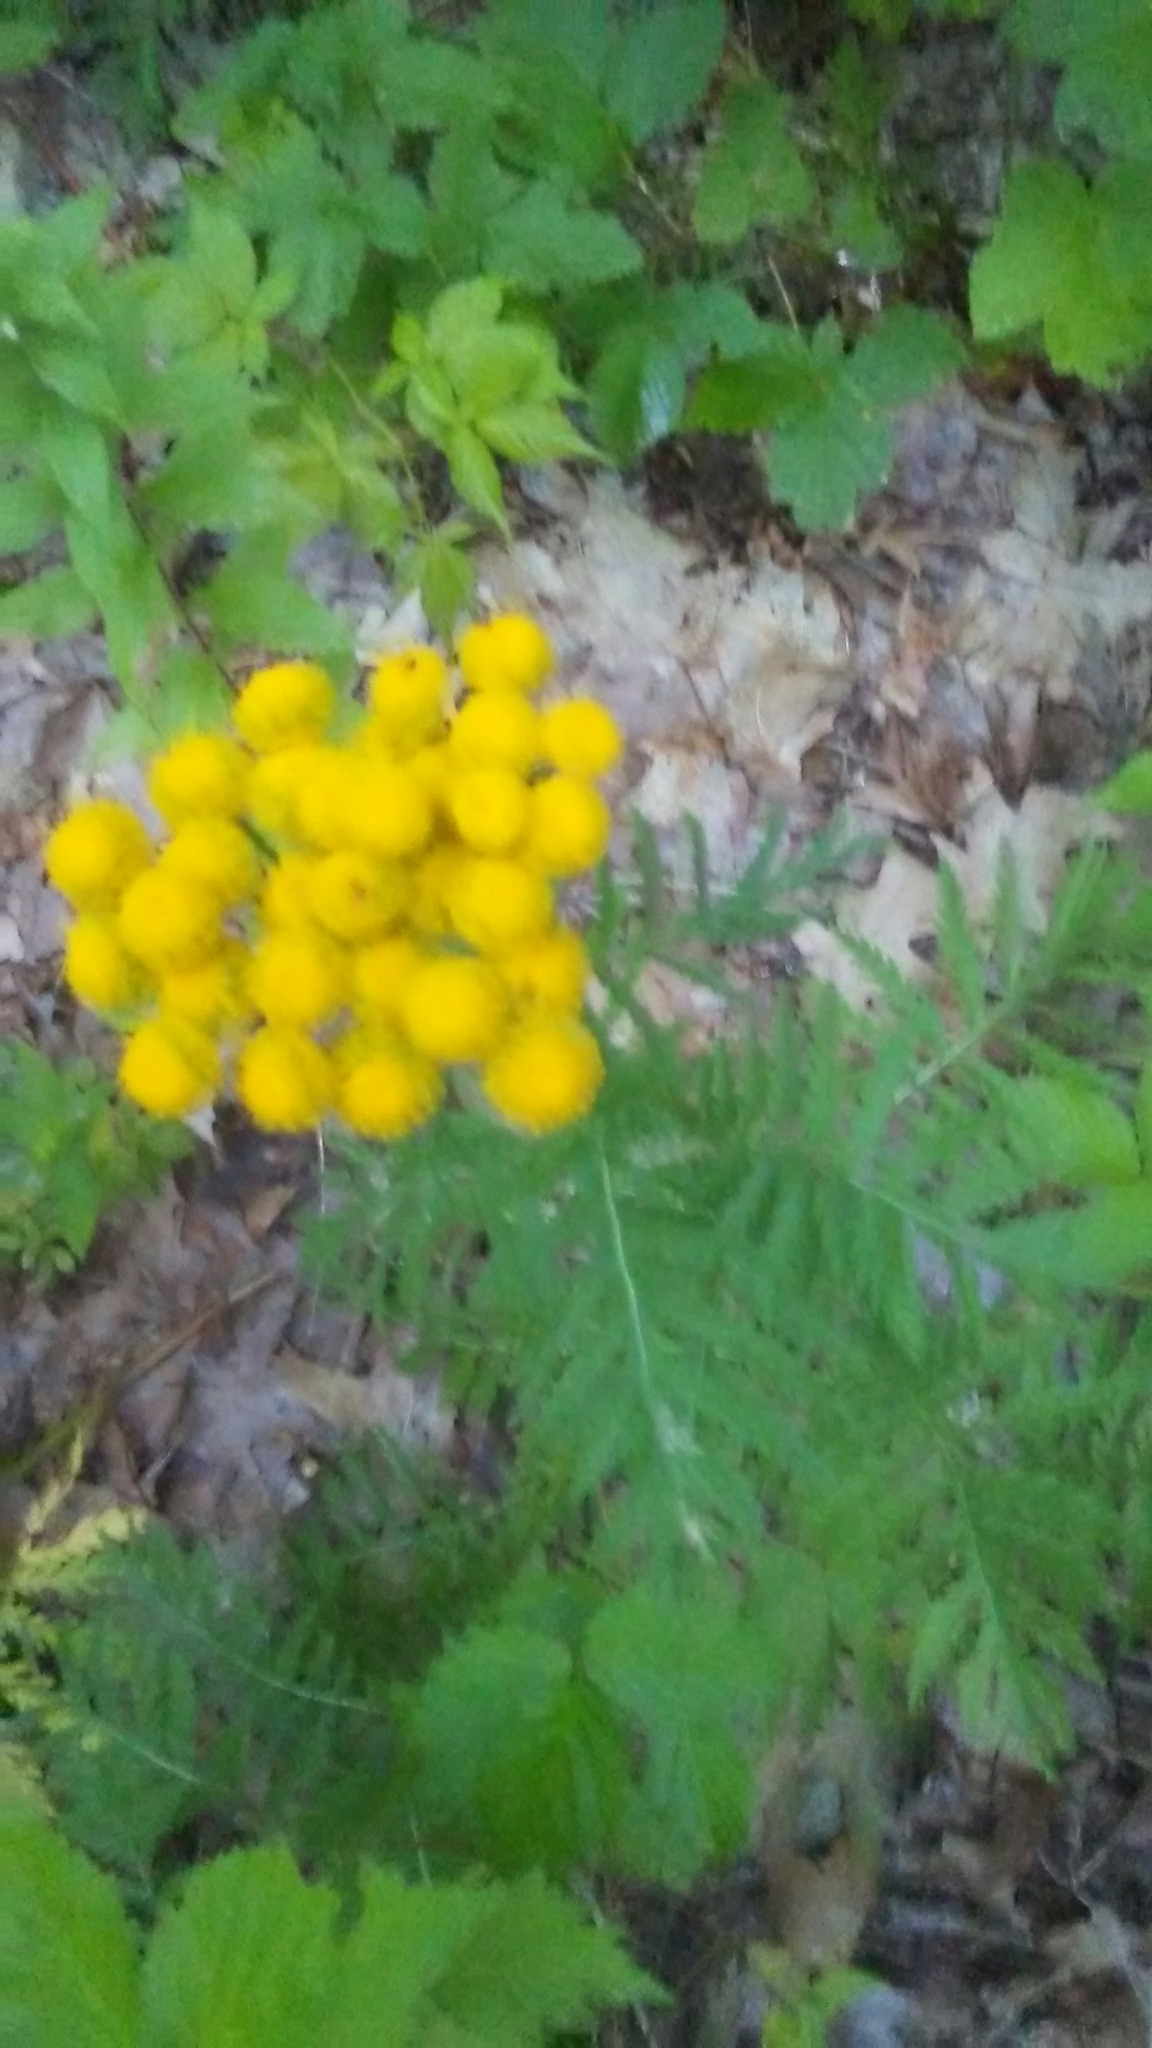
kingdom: Plantae
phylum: Tracheophyta
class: Magnoliopsida
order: Asterales
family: Asteraceae
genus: Tanacetum
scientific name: Tanacetum vulgare
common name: Common tansy
